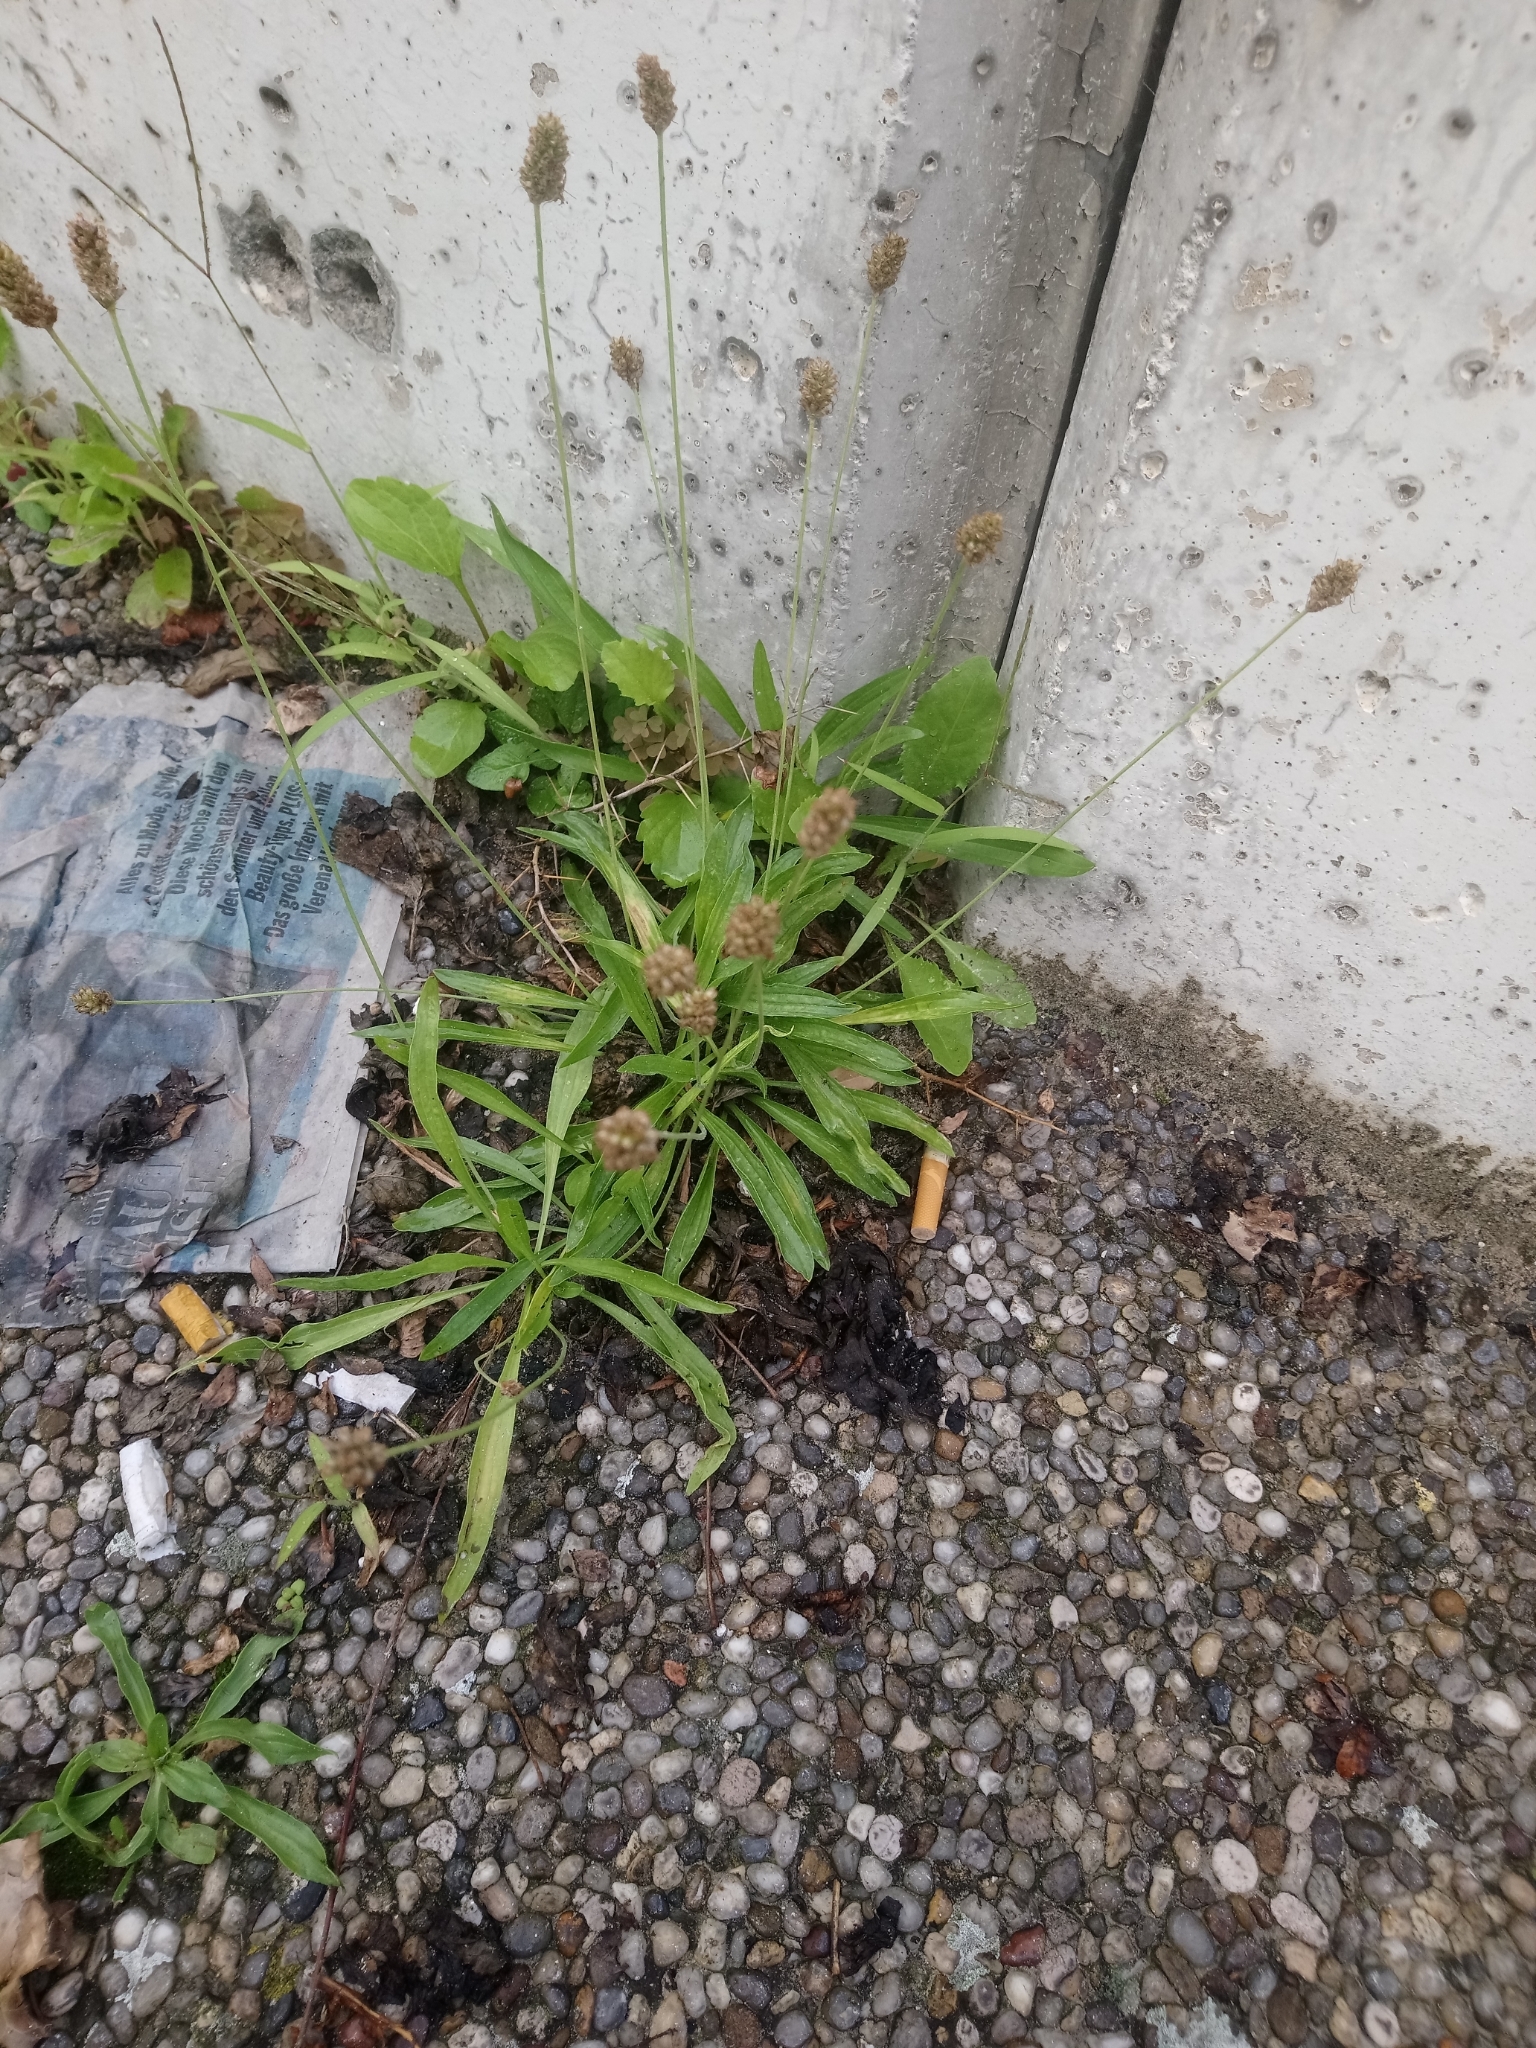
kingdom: Plantae
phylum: Tracheophyta
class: Magnoliopsida
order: Lamiales
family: Plantaginaceae
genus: Plantago
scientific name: Plantago lanceolata
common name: Ribwort plantain
